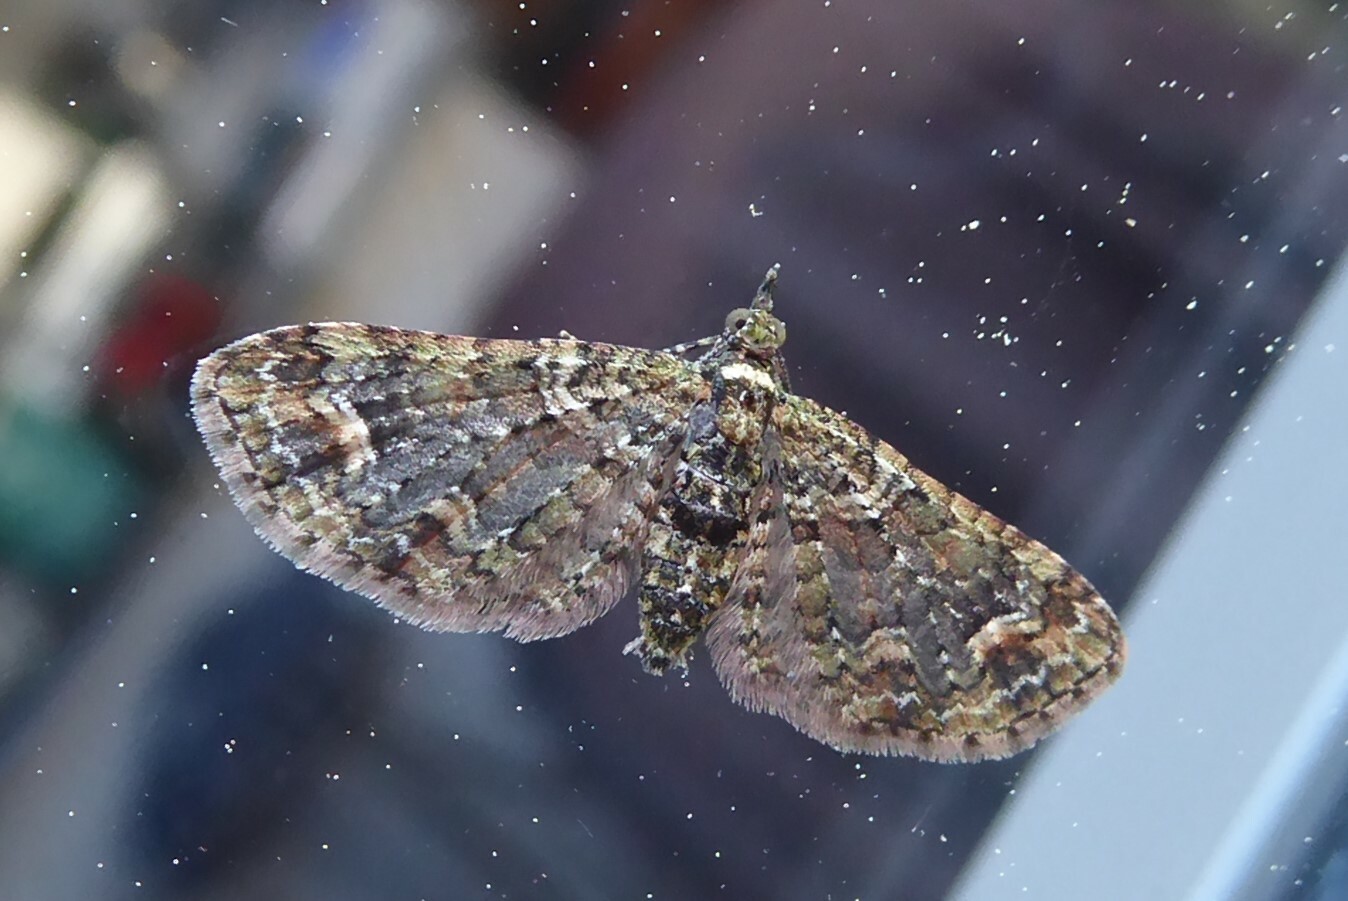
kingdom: Animalia
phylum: Arthropoda
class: Insecta
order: Lepidoptera
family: Geometridae
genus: Idaea
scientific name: Idaea mutanda
